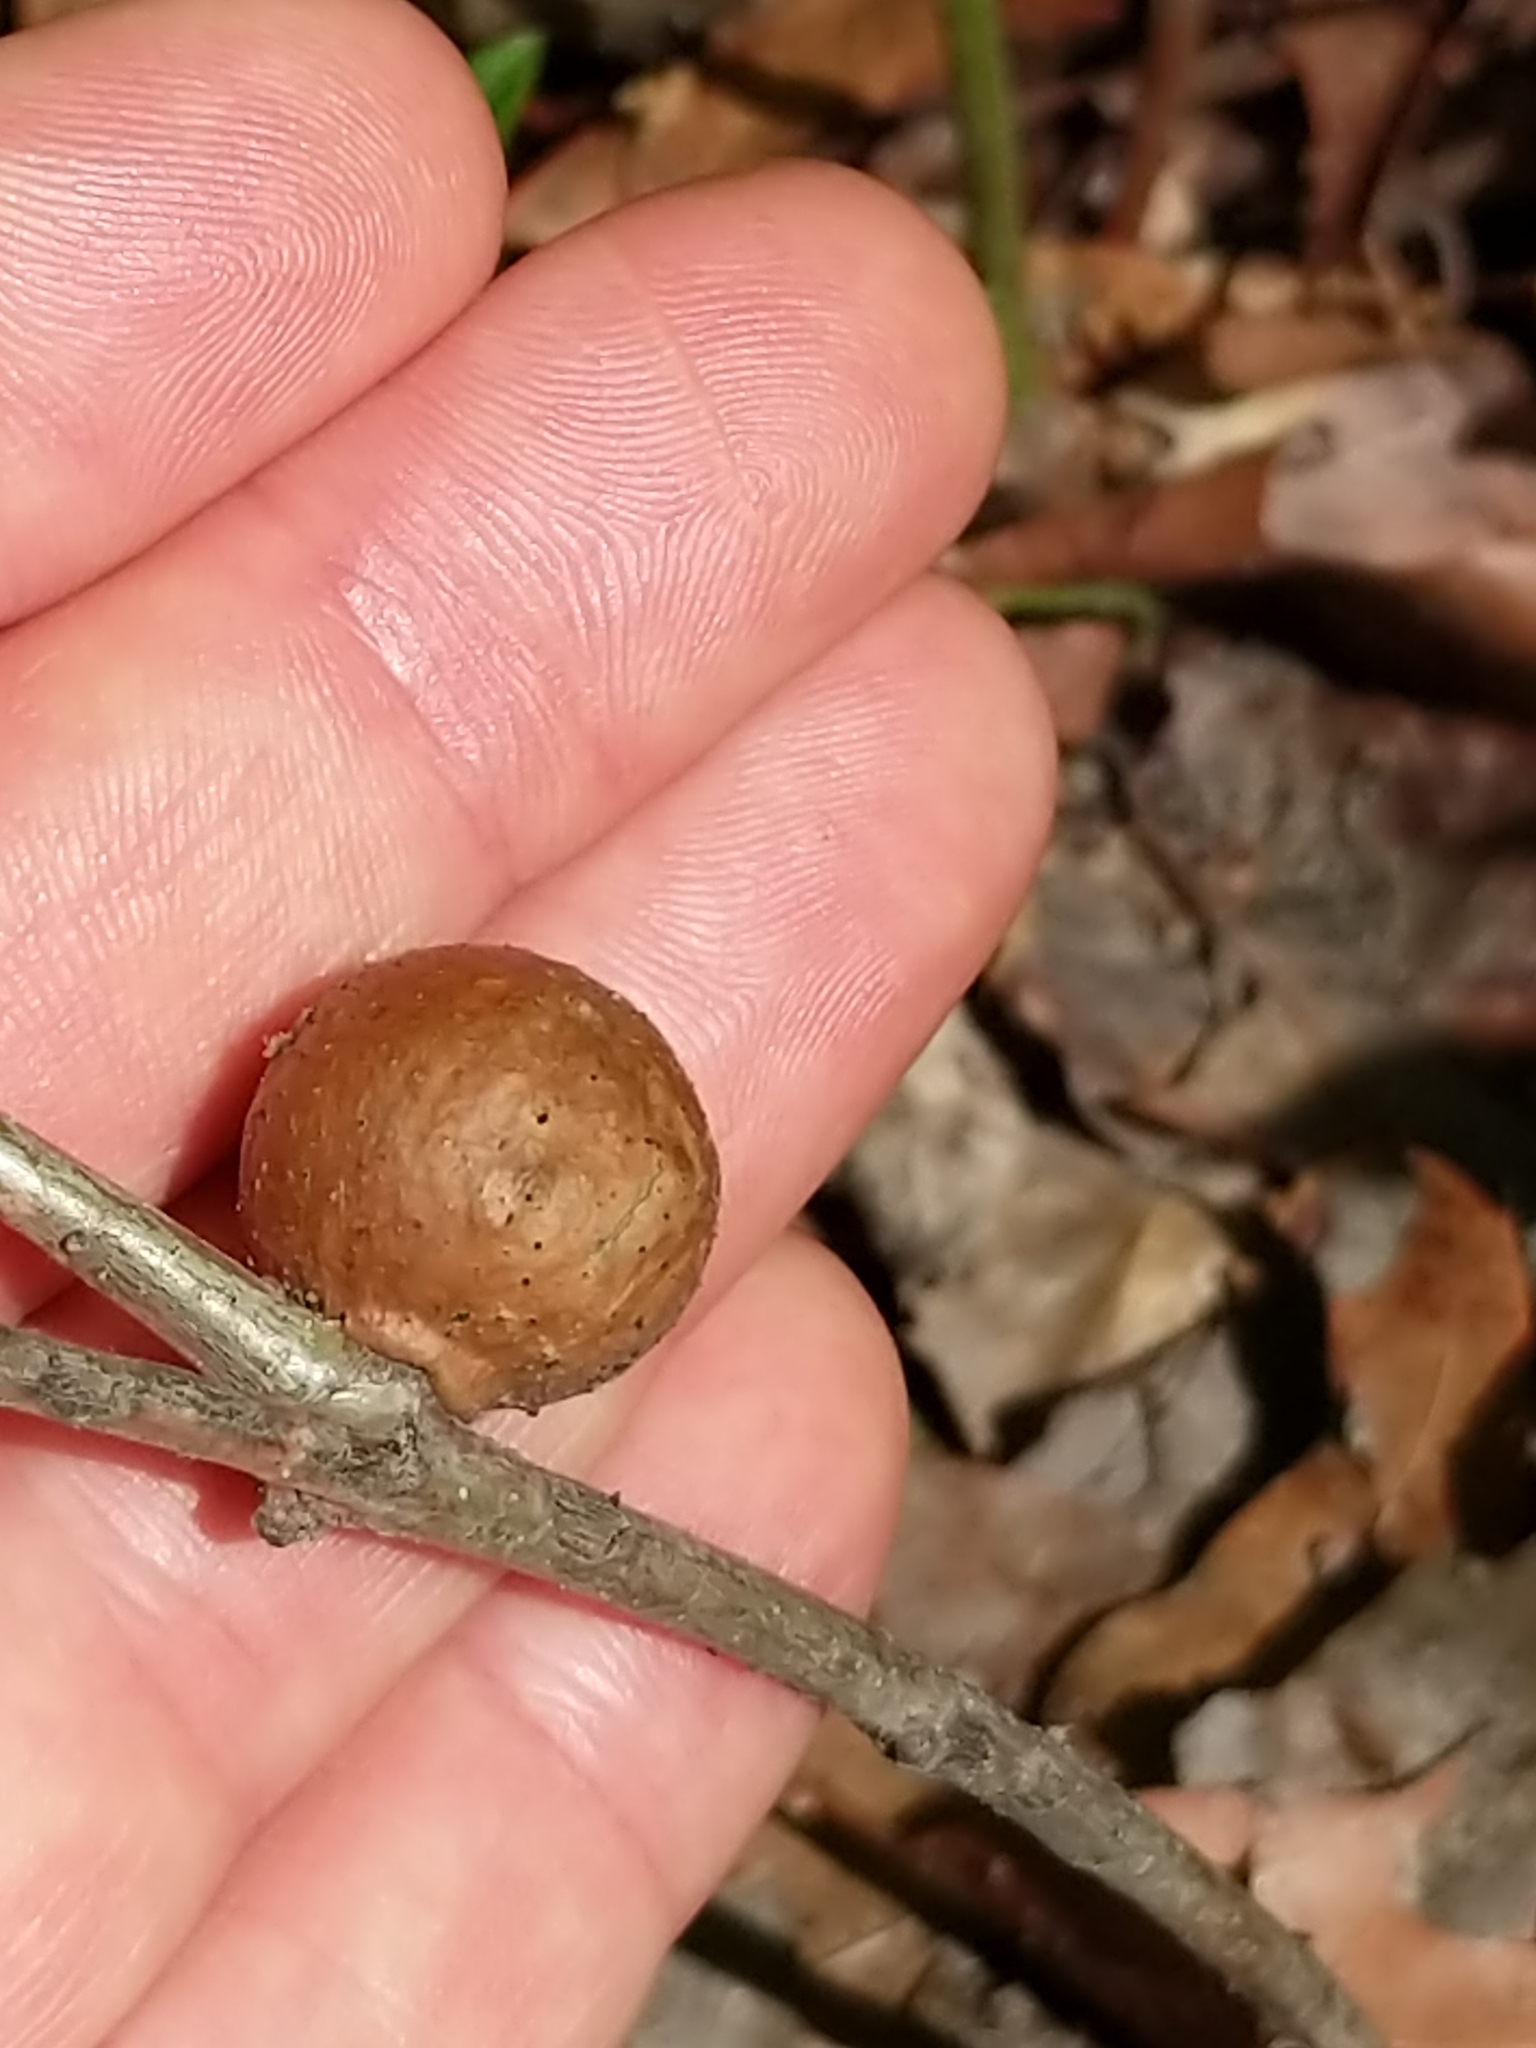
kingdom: Animalia
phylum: Arthropoda
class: Insecta
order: Hymenoptera
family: Cynipidae
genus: Disholcaspis
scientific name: Disholcaspis quercusglobulus
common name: Round bullet gall wasp
